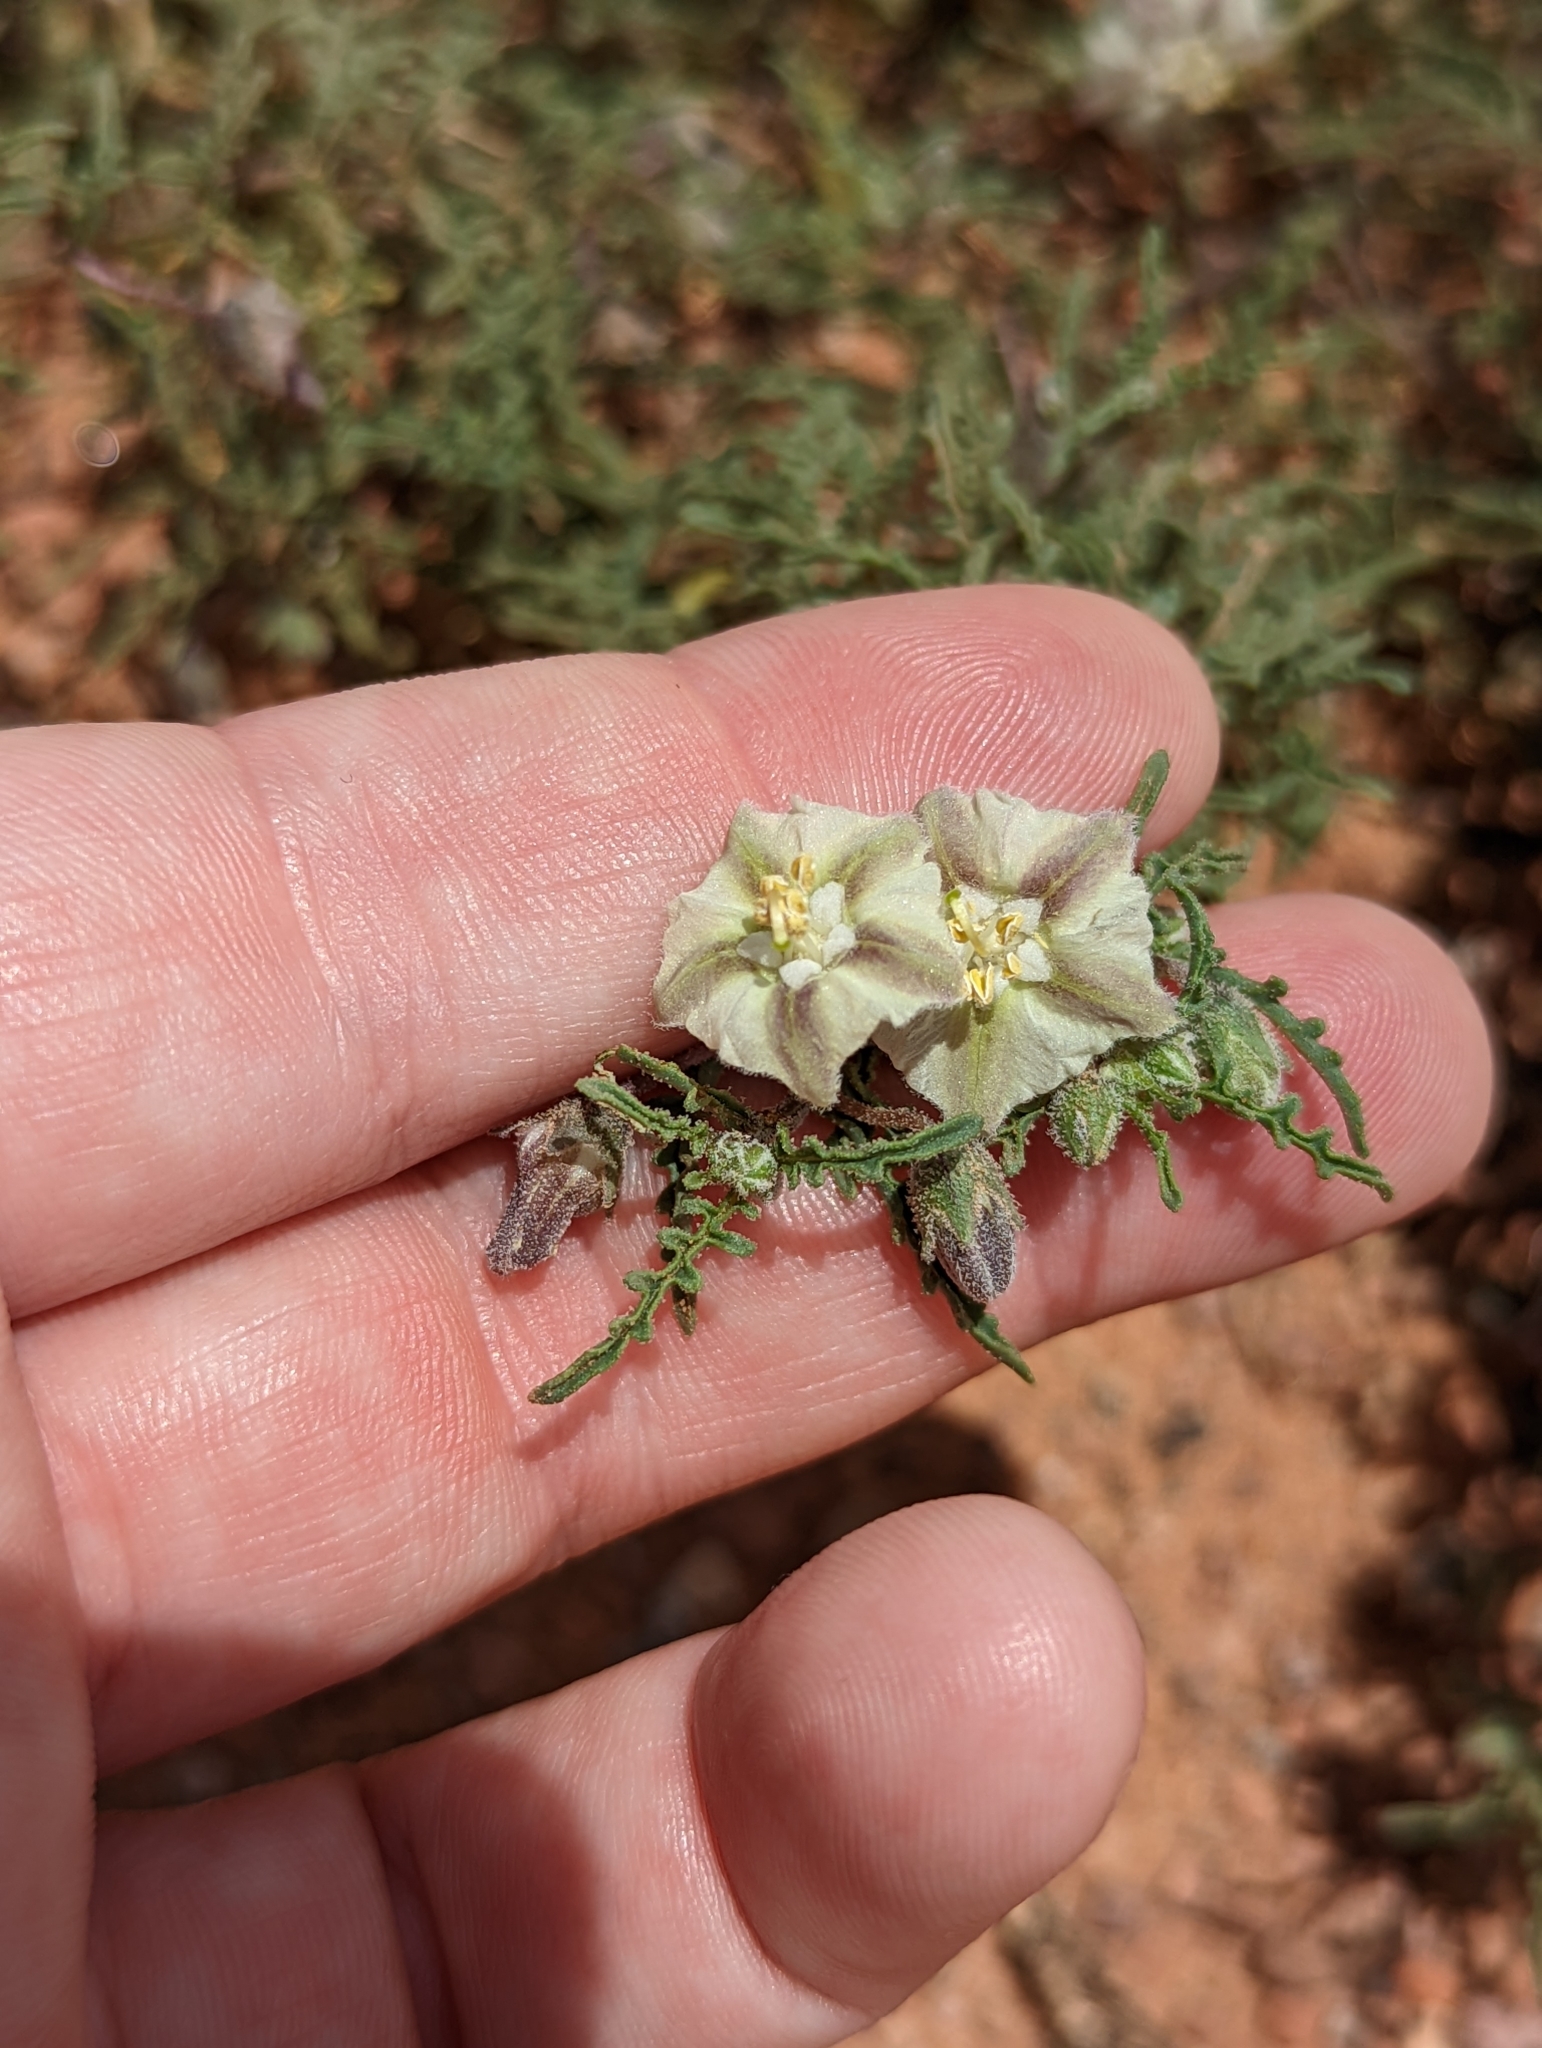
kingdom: Plantae
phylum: Tracheophyta
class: Magnoliopsida
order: Solanales
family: Solanaceae
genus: Chamaesaracha
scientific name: Chamaesaracha coronopus
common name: Smooth chamaesaracha
